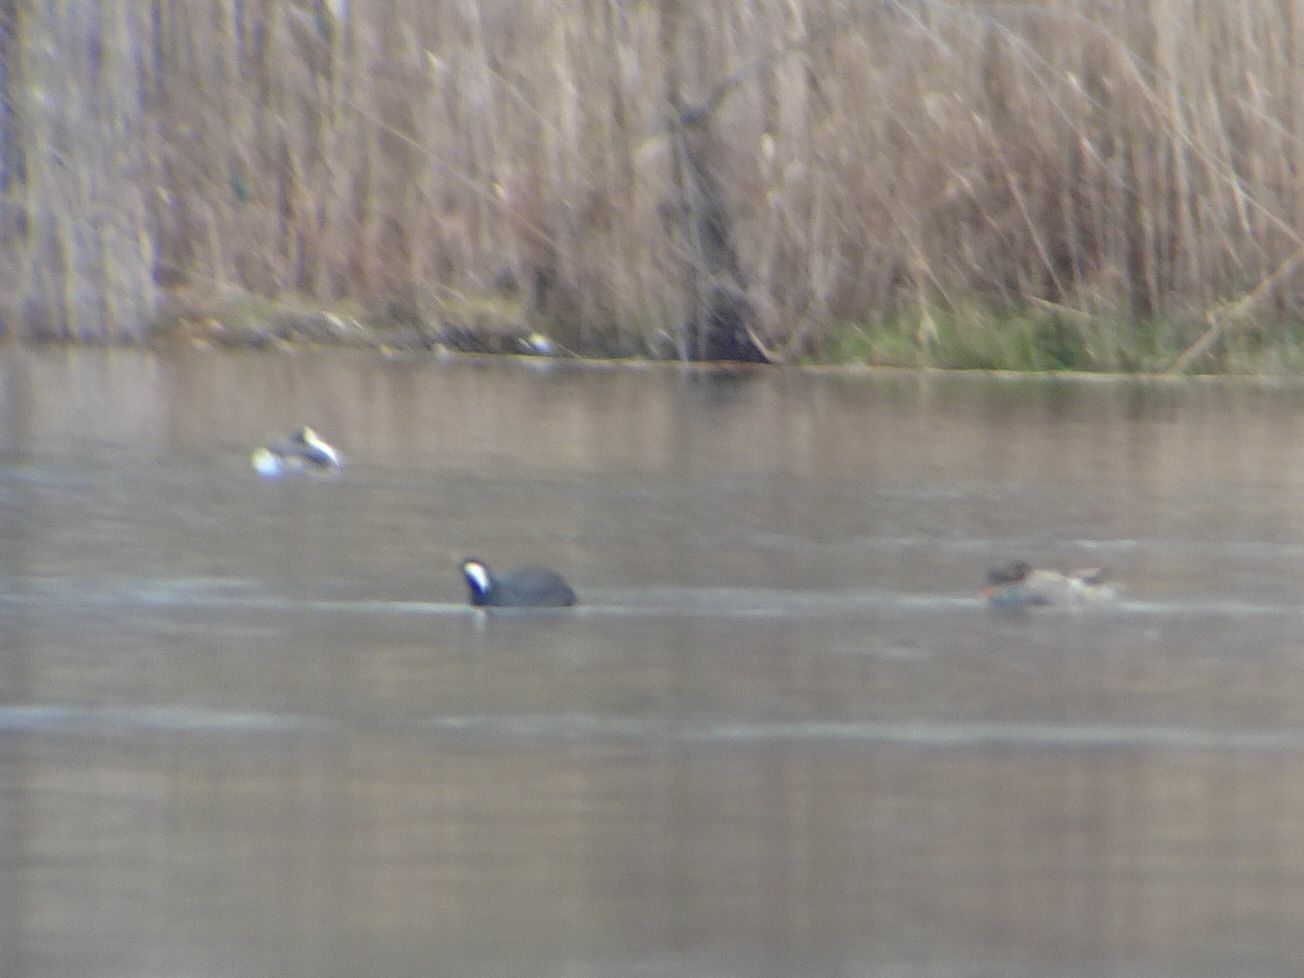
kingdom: Animalia
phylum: Chordata
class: Aves
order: Gruiformes
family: Rallidae
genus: Fulica
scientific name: Fulica atra
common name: Eurasian coot
